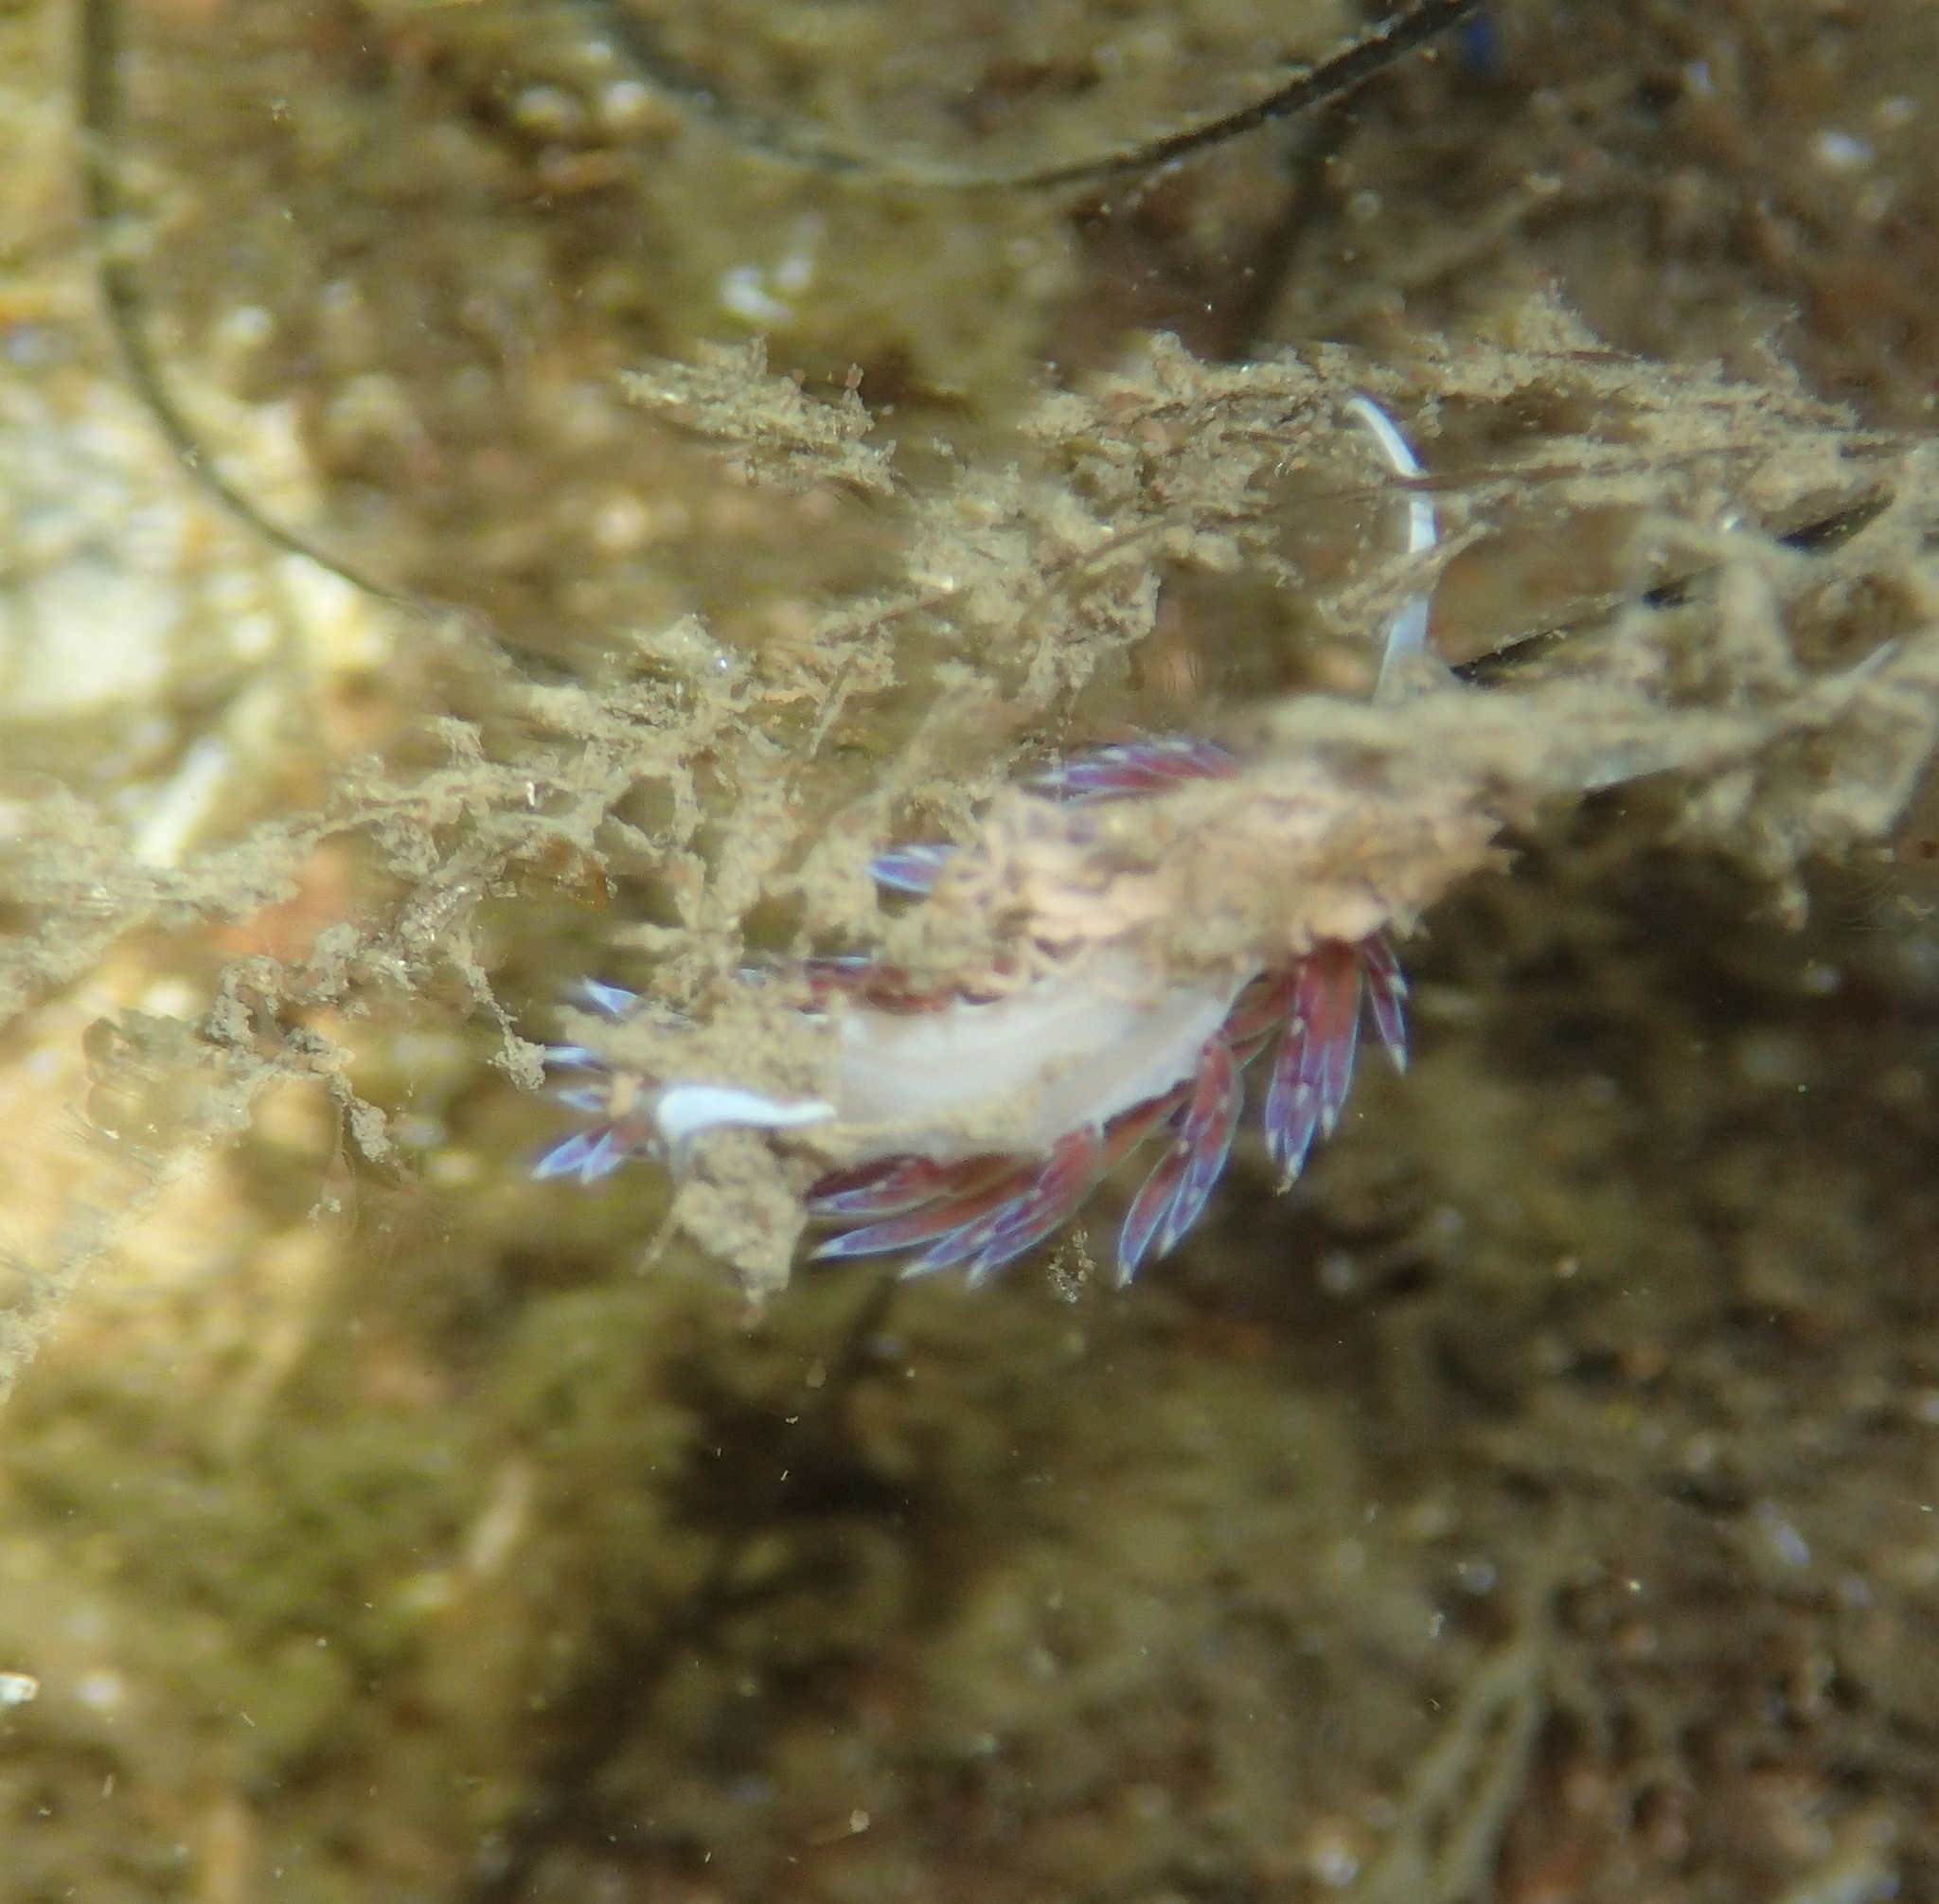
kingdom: Animalia
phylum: Mollusca
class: Gastropoda
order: Nudibranchia
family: Facelinidae
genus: Cratena
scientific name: Cratena peregrina
